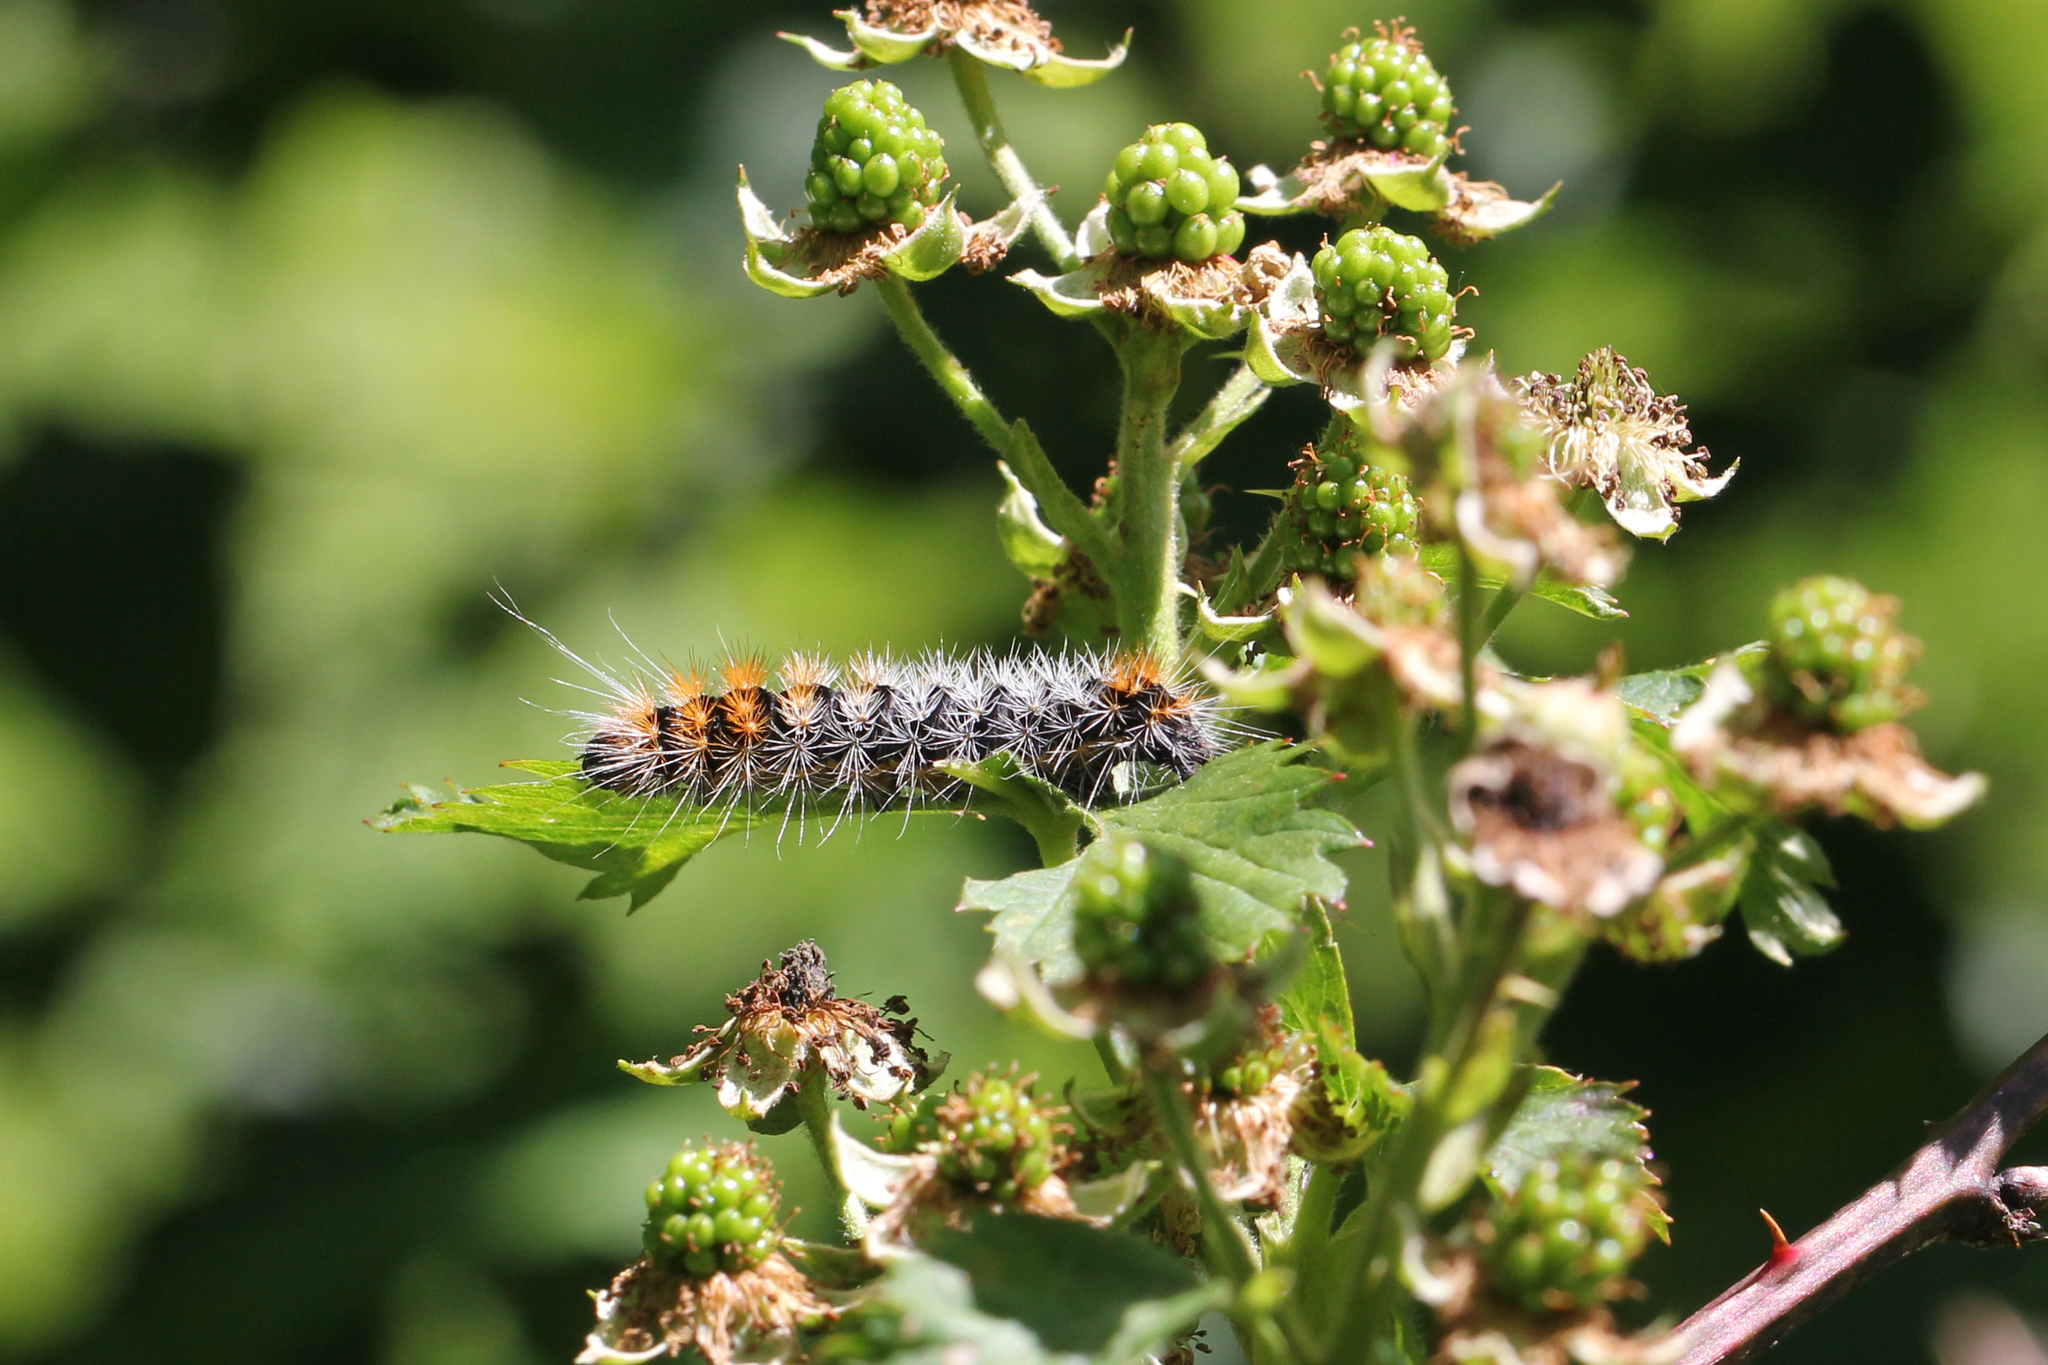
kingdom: Animalia
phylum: Arthropoda
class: Insecta
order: Lepidoptera
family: Noctuidae
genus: Acronicta
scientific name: Acronicta impressa
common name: Impressed dagger
